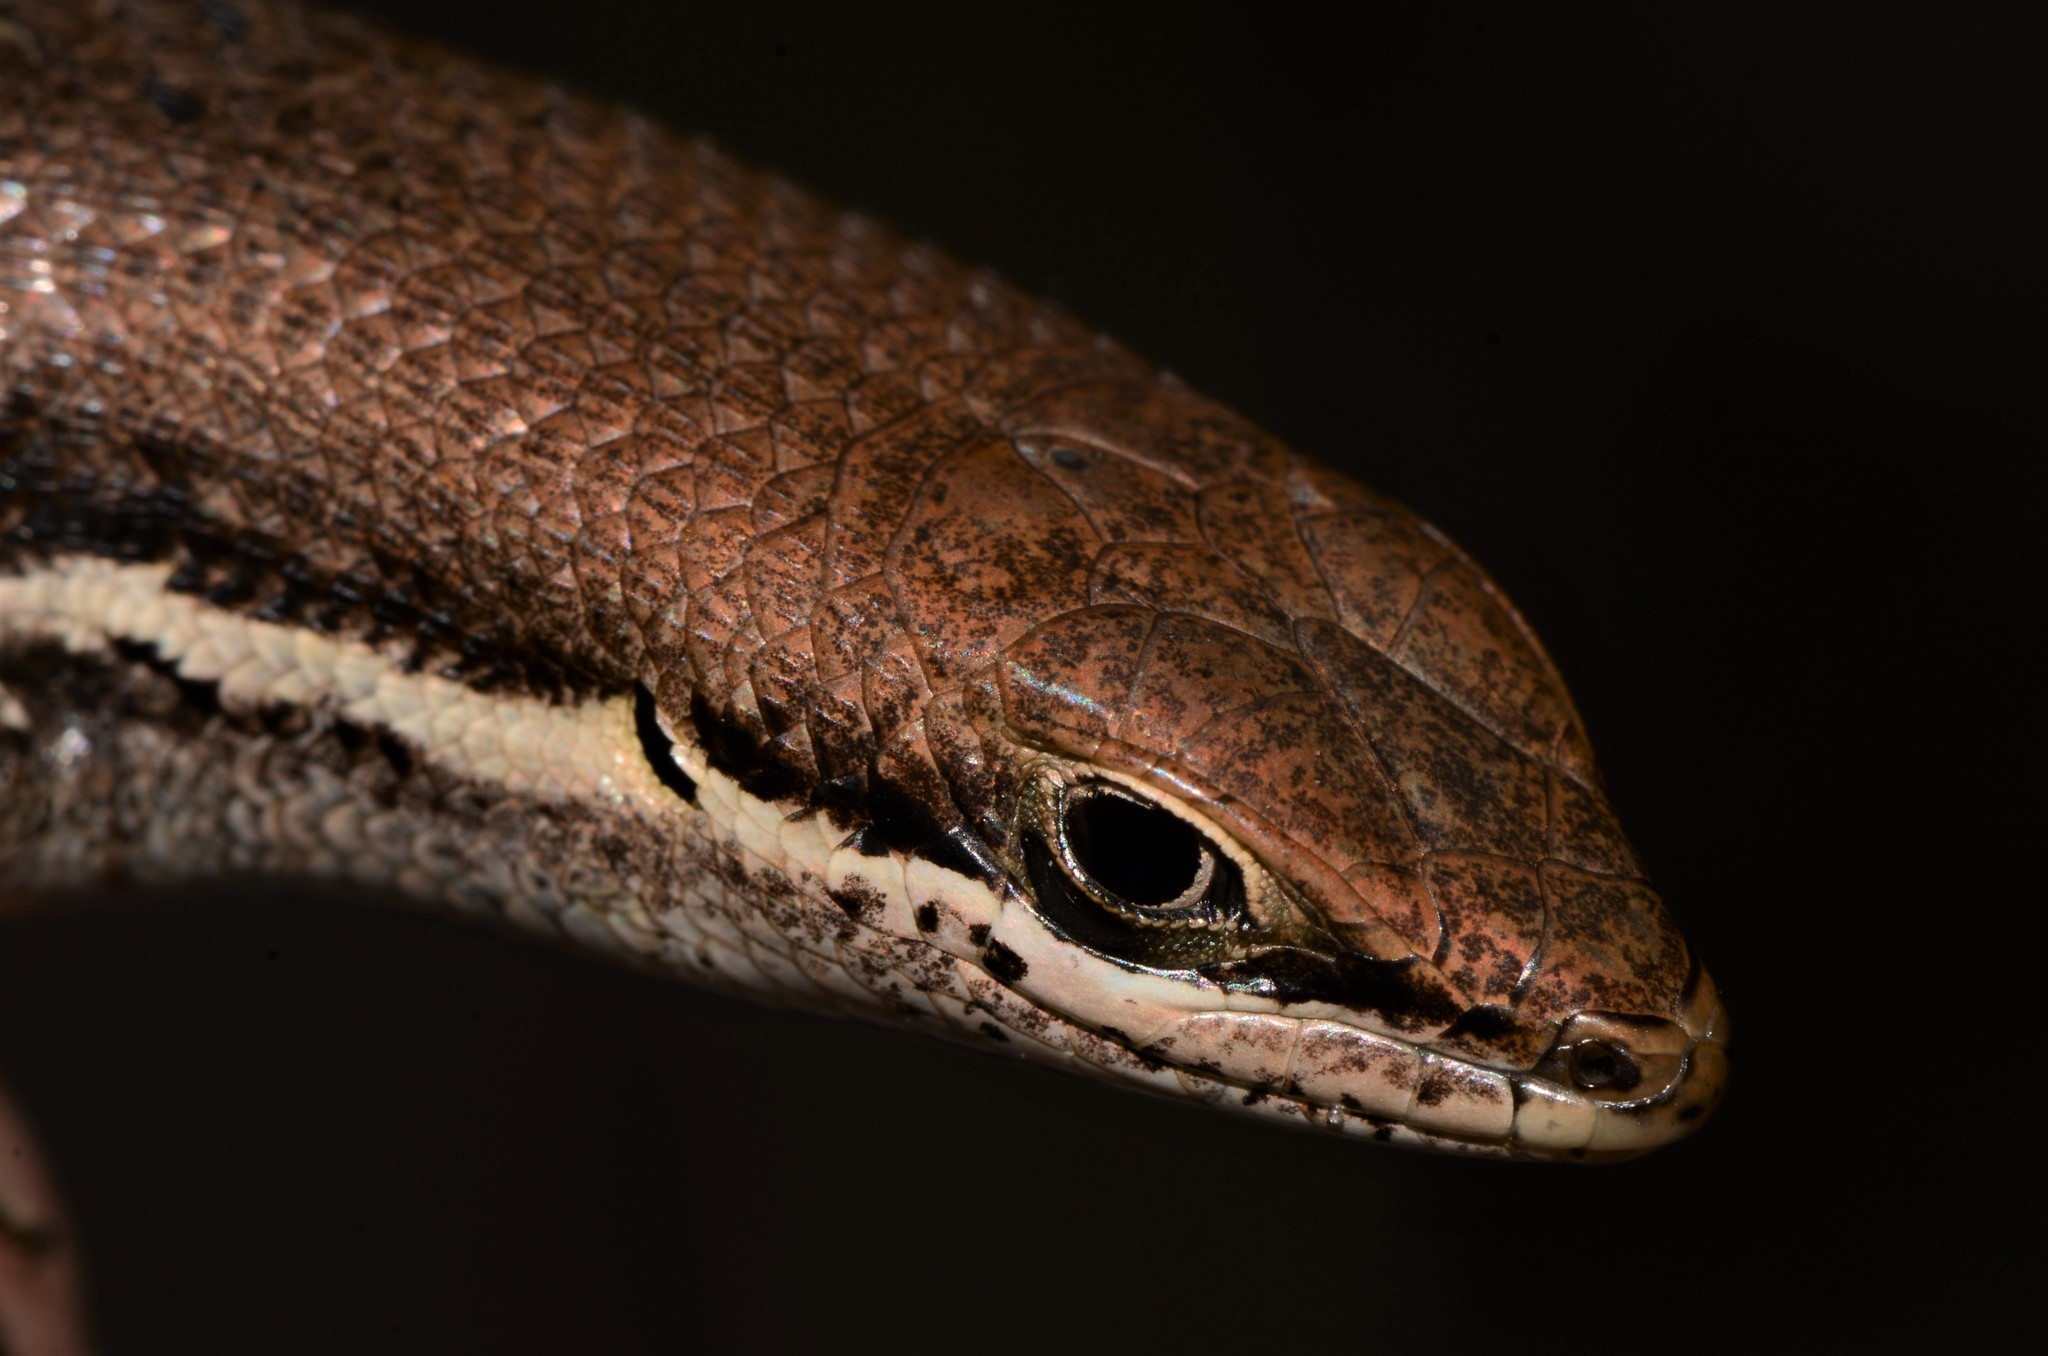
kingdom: Animalia
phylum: Chordata
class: Squamata
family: Scincidae
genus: Trachylepis
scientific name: Trachylepis varia
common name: Eastern variable skink
